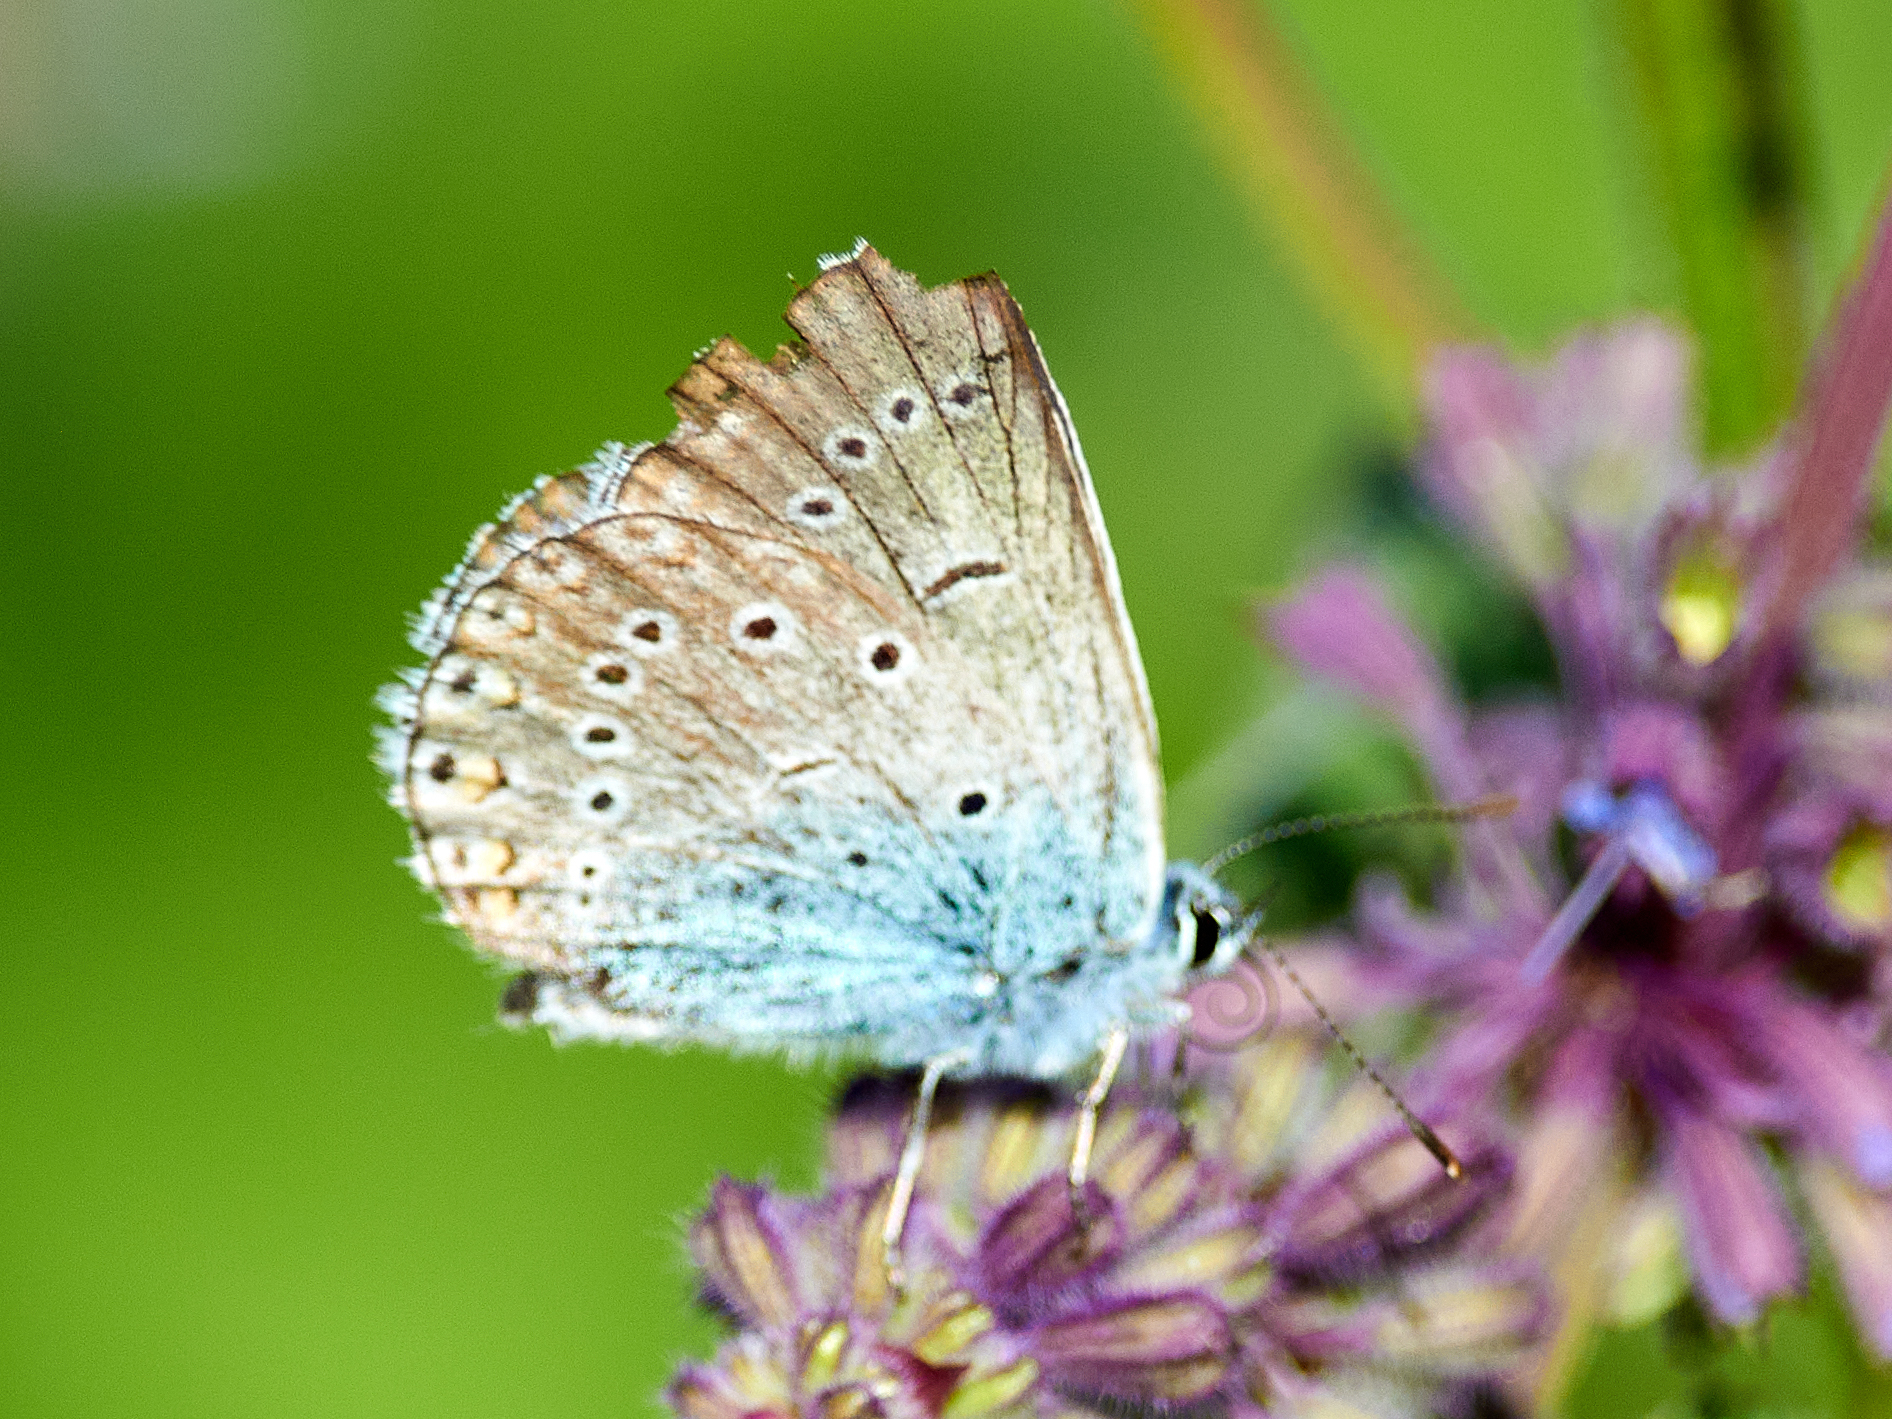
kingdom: Animalia
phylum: Arthropoda
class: Insecta
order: Lepidoptera
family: Lycaenidae
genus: Plebejus
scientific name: Plebejus amanda
